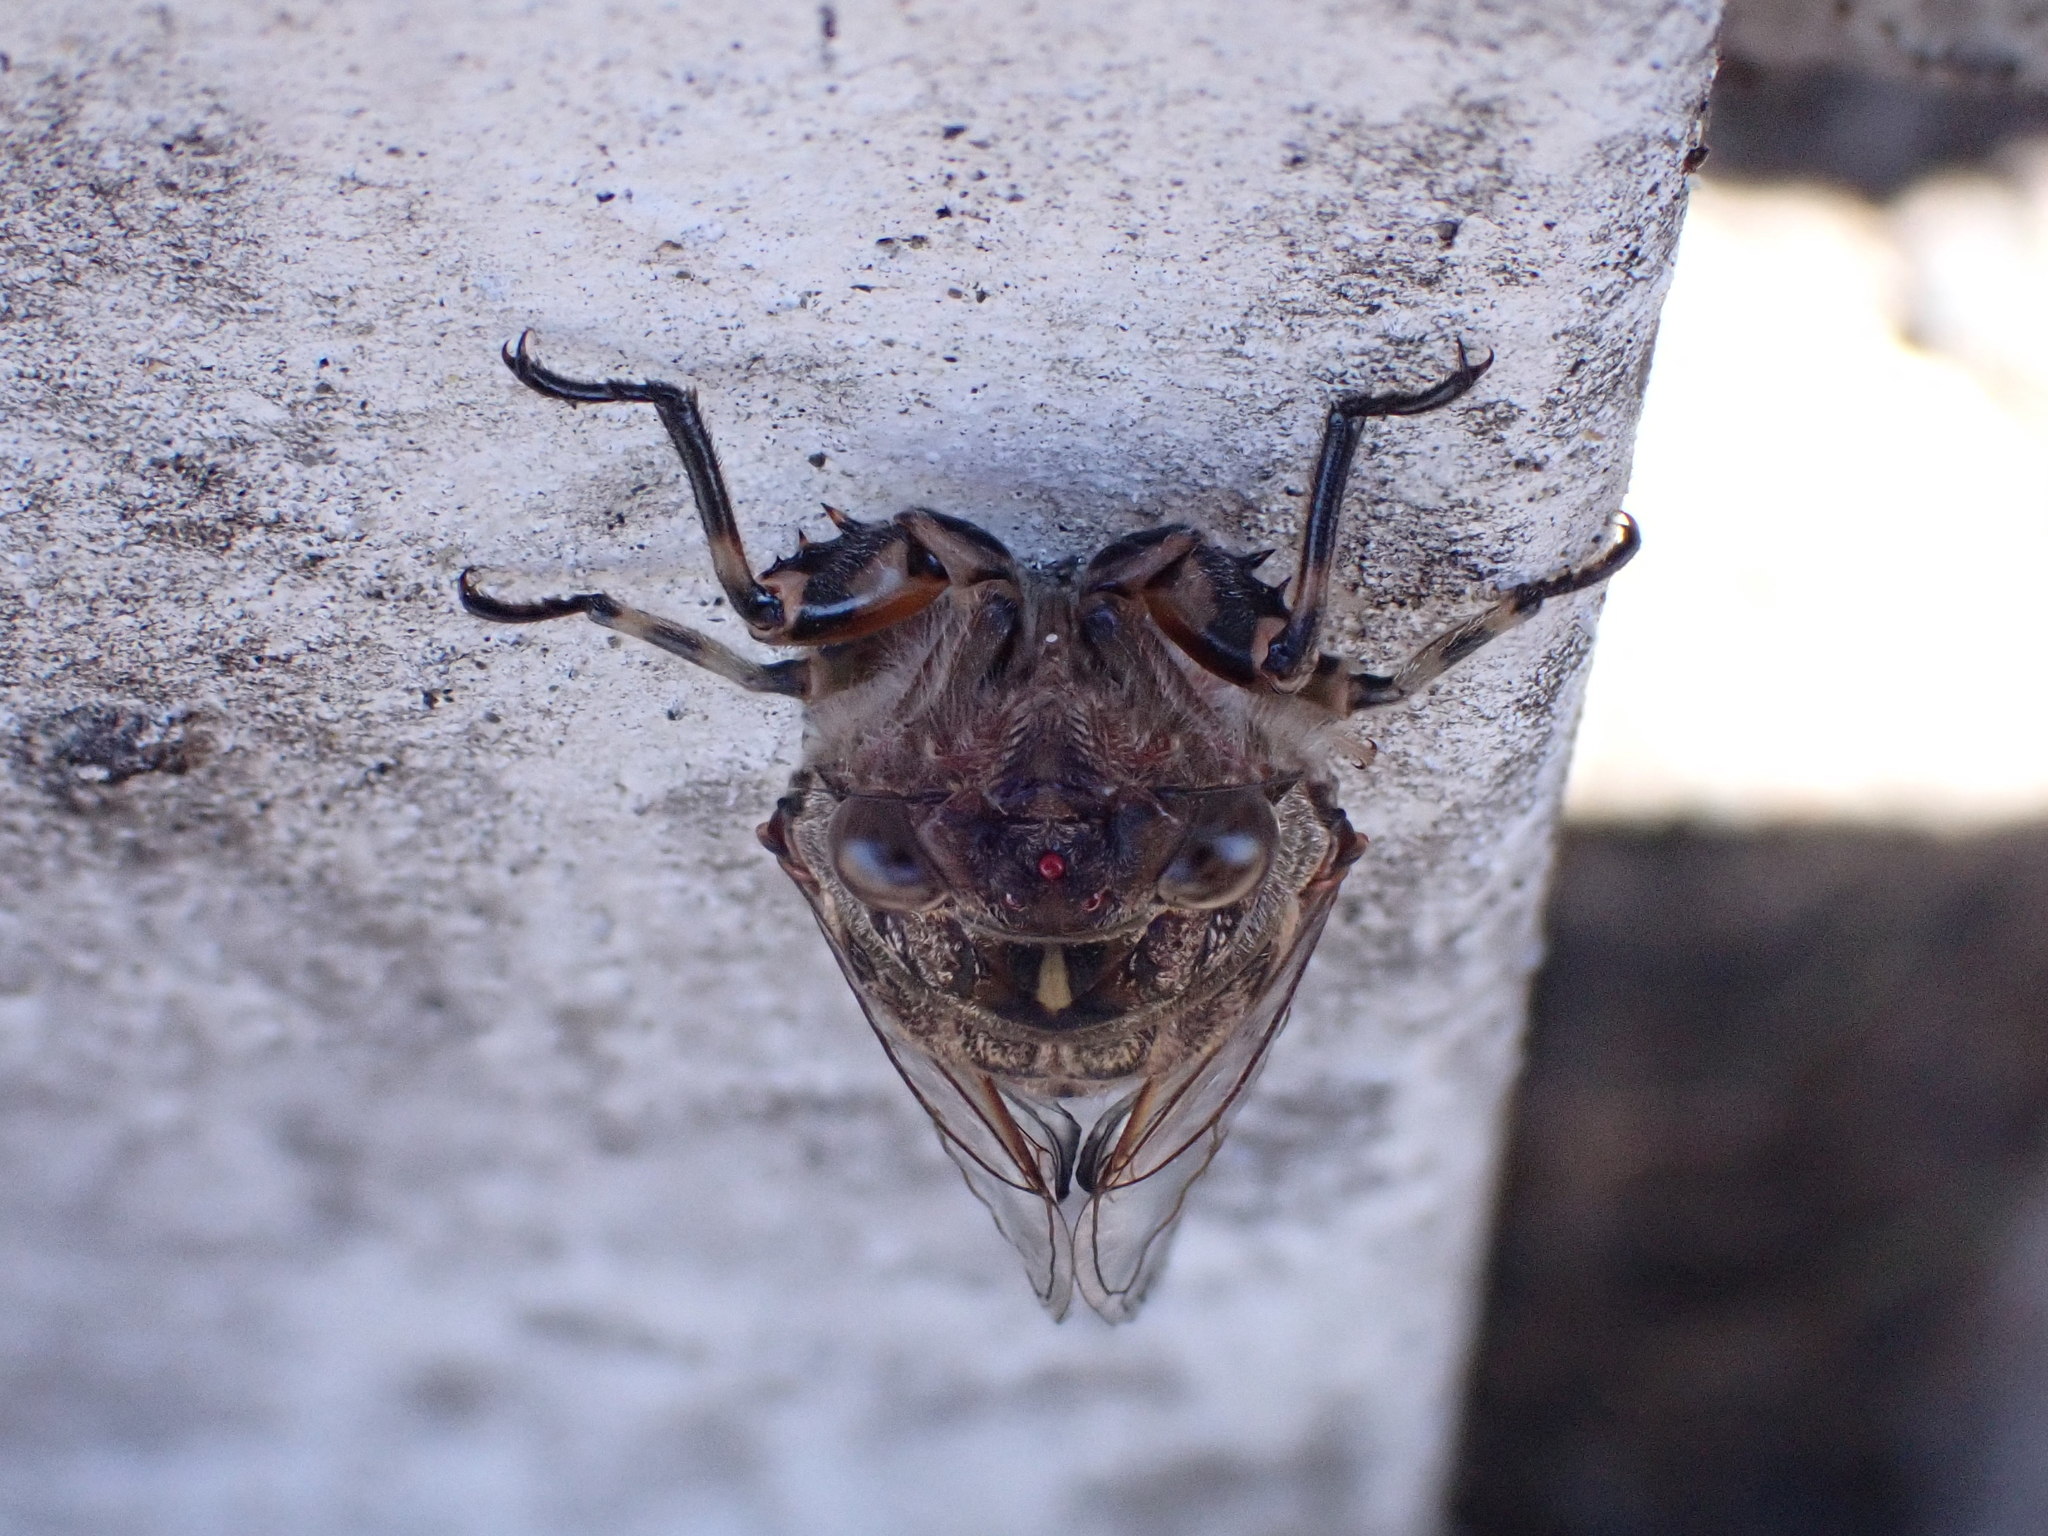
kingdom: Animalia
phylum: Arthropoda
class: Insecta
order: Hemiptera
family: Cicadidae
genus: Amphipsalta
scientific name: Amphipsalta cingulata
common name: Clapping cicada
